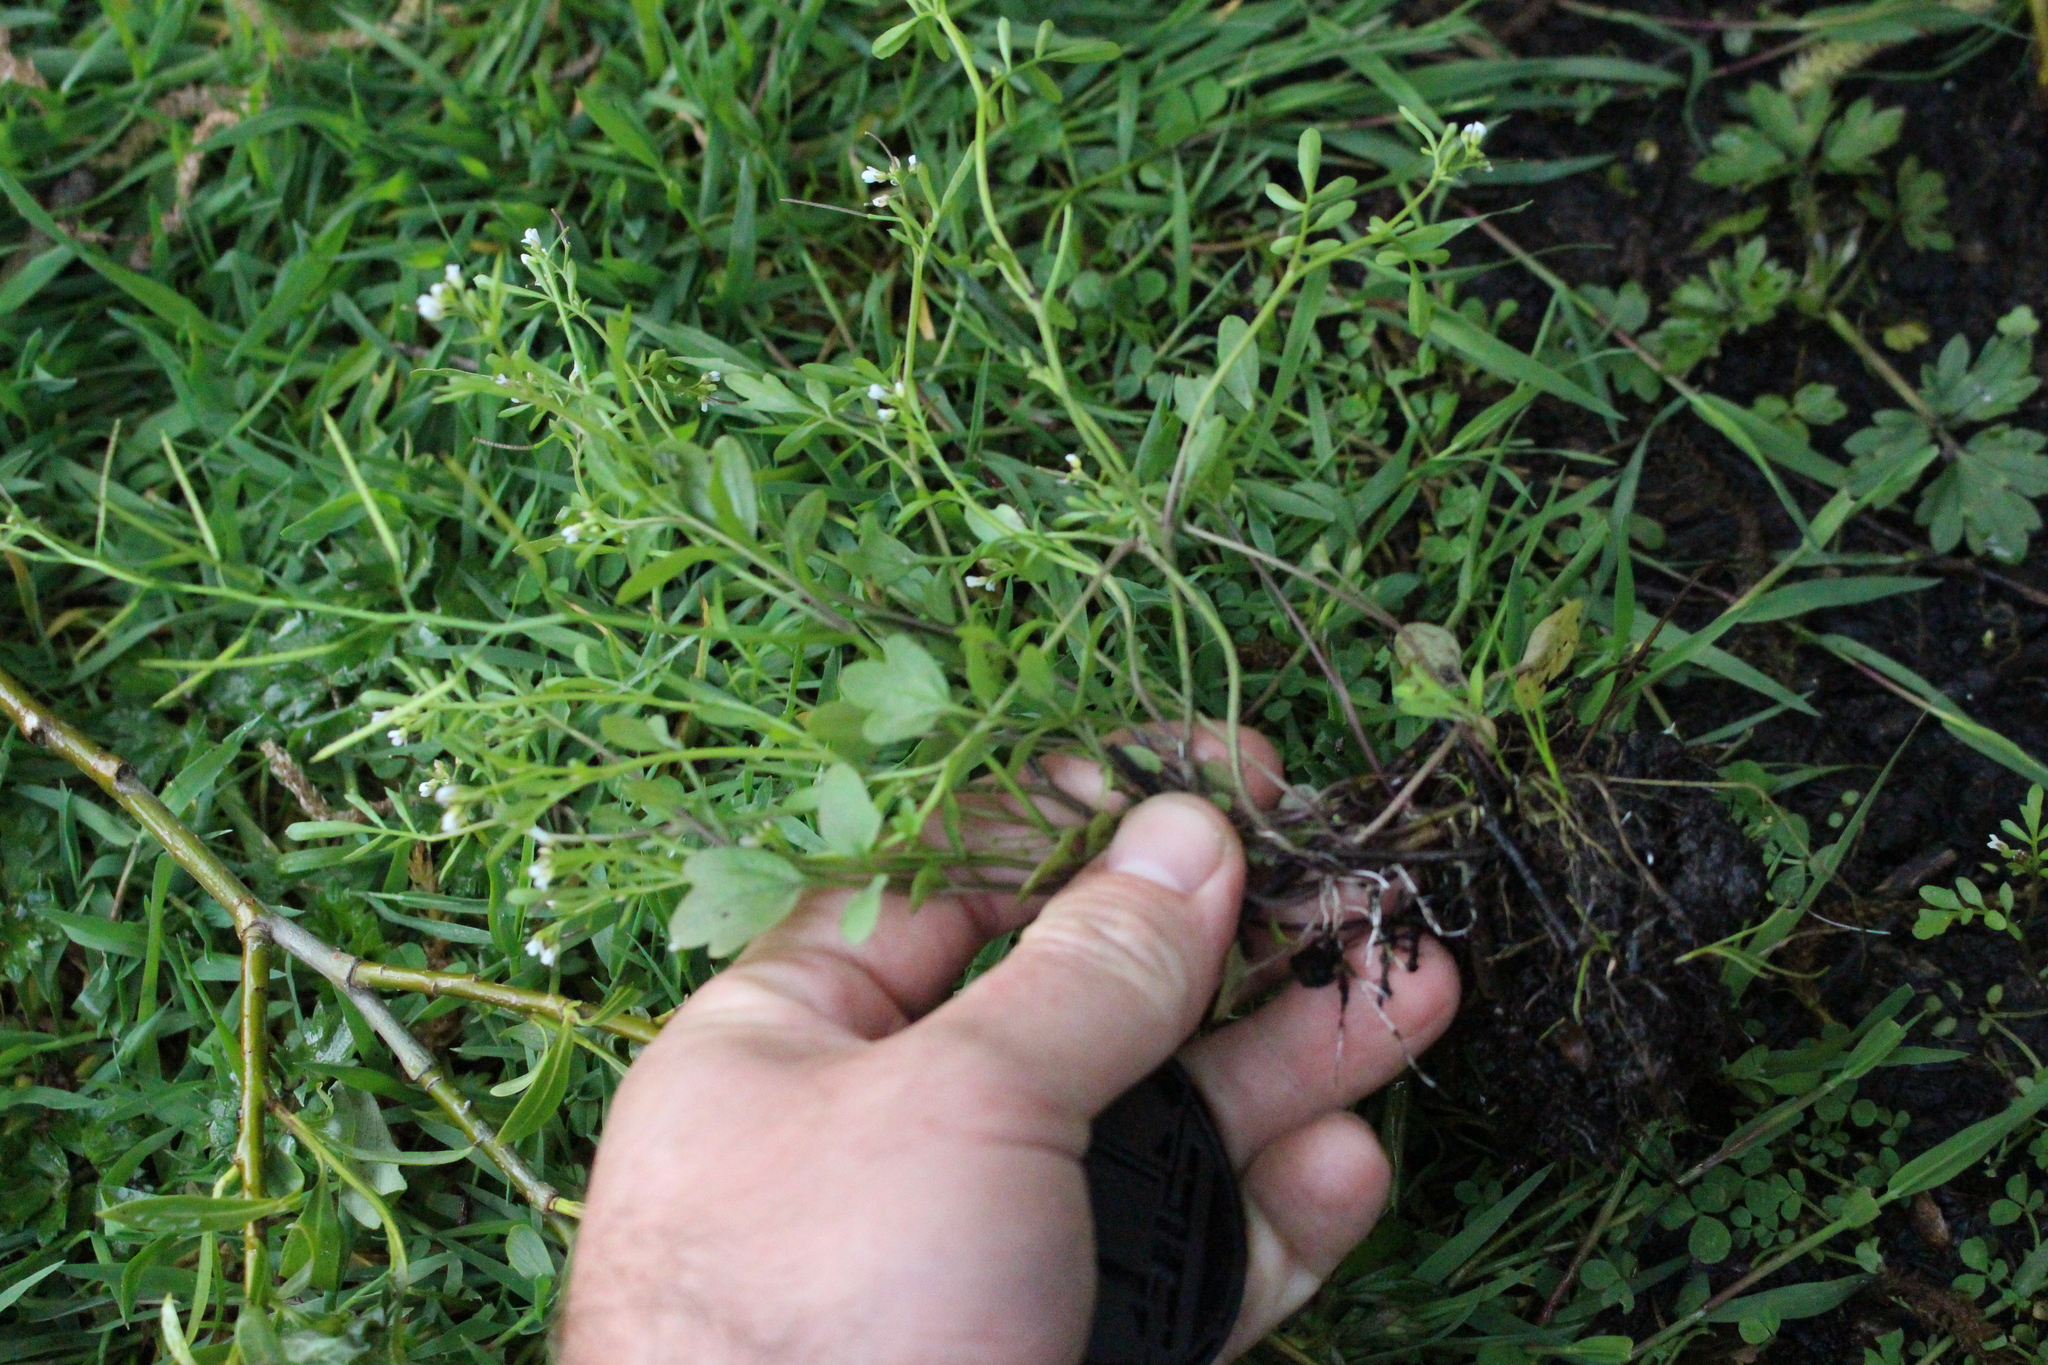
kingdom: Plantae
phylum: Tracheophyta
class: Magnoliopsida
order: Brassicales
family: Brassicaceae
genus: Cardamine
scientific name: Cardamine occulta
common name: Asian wavy bittercress
